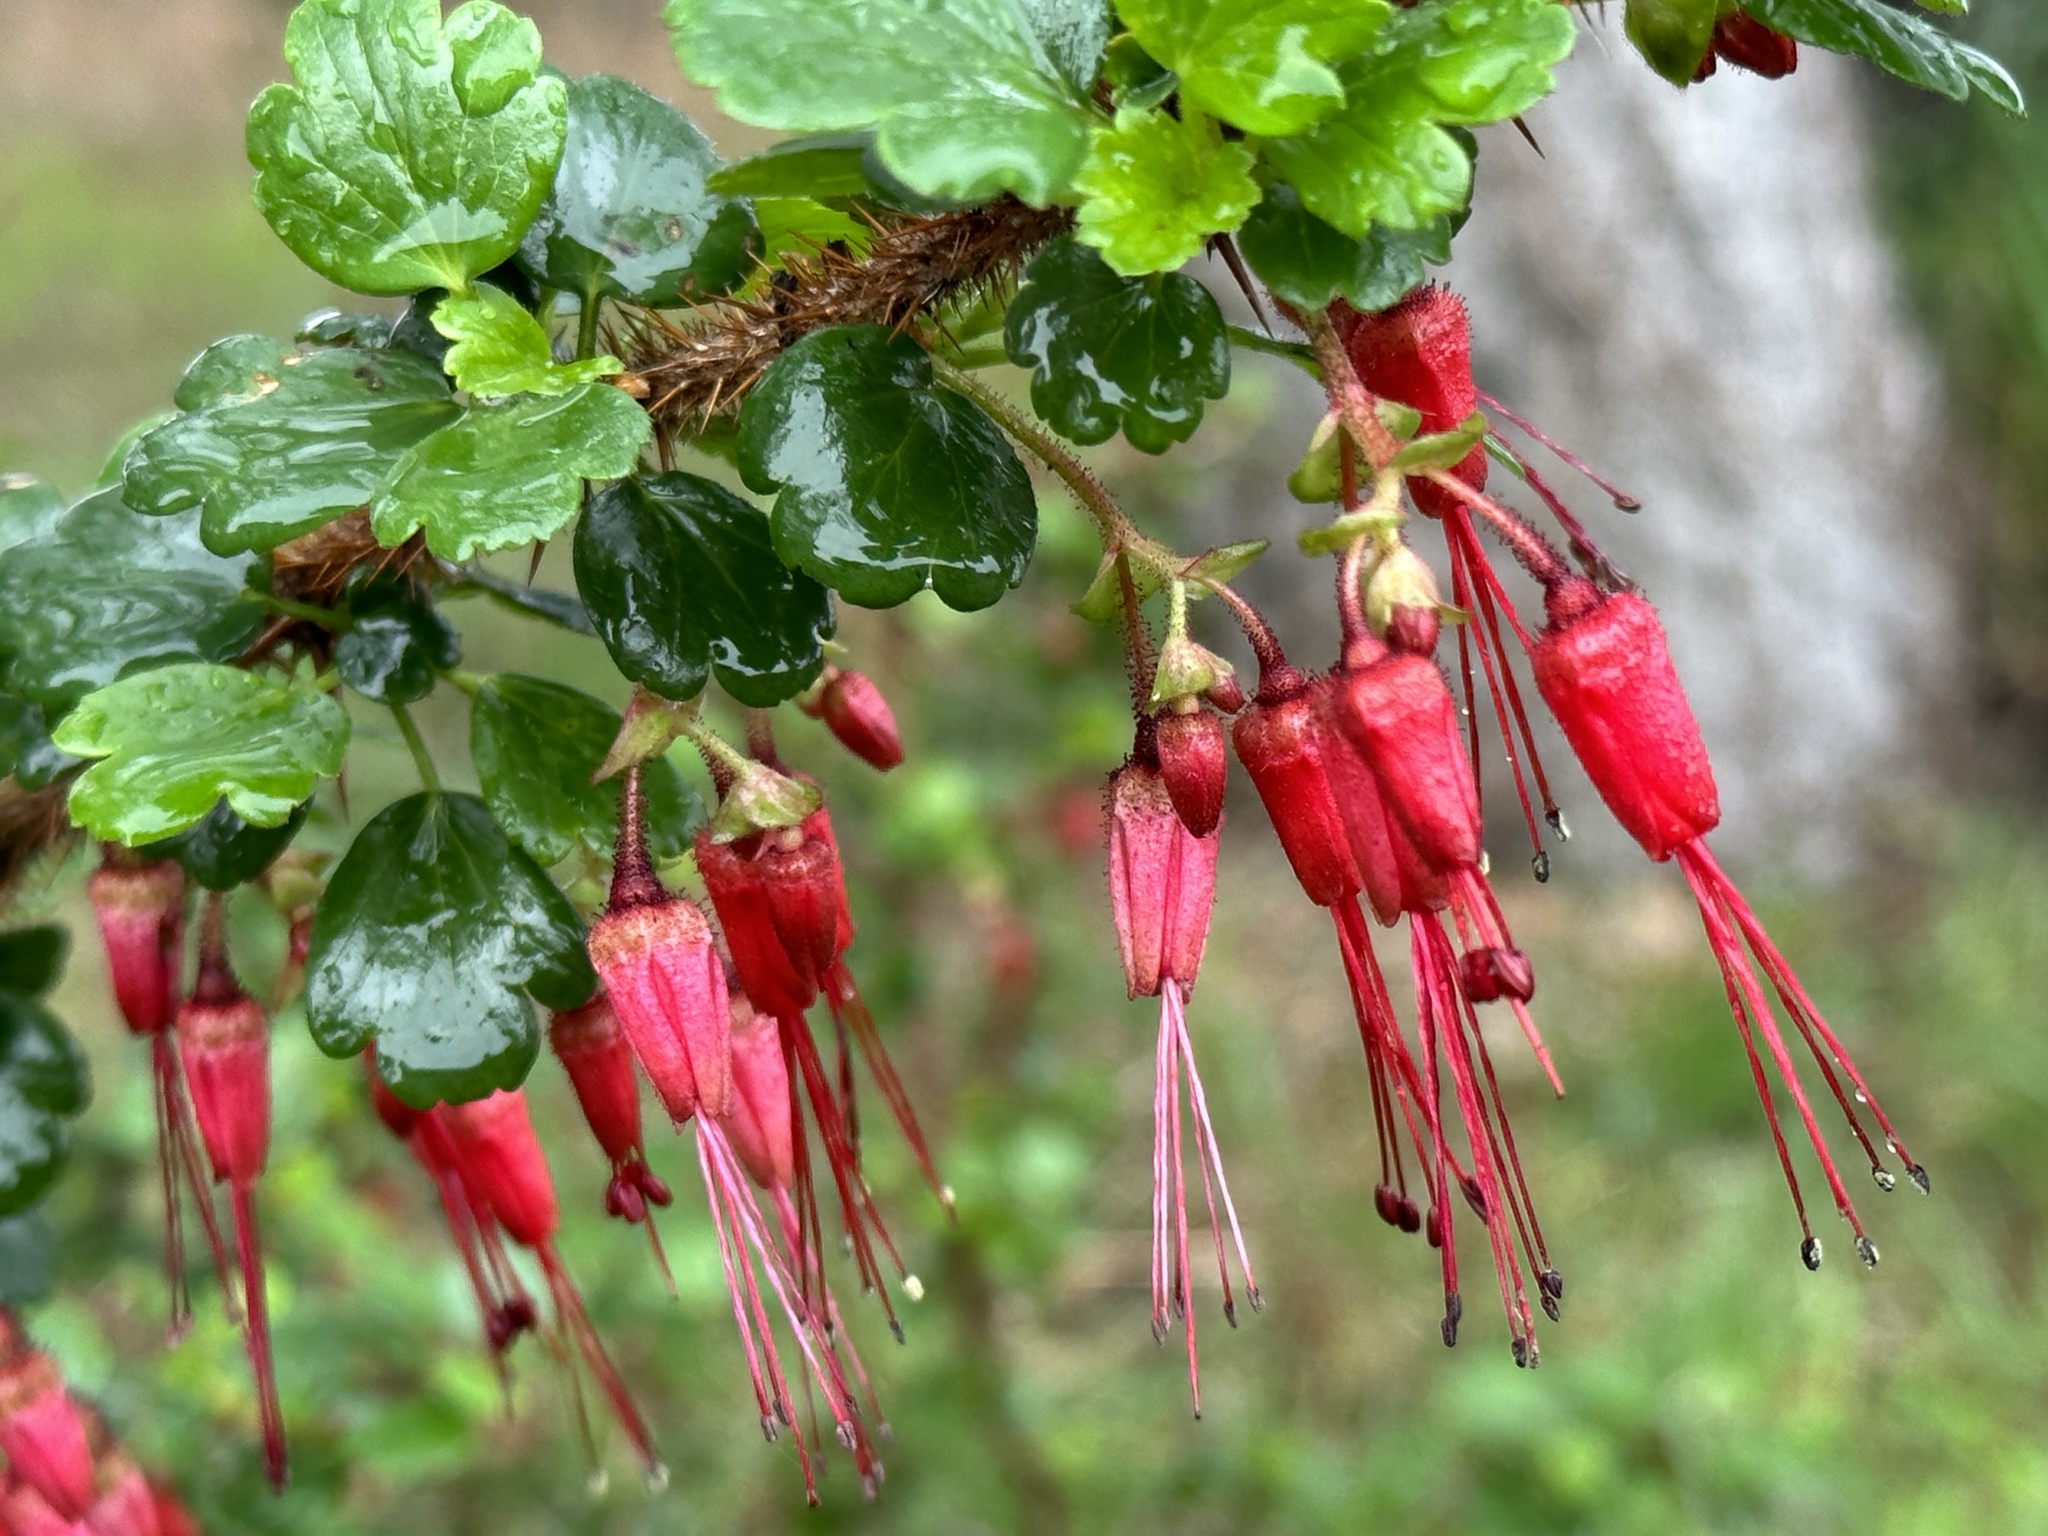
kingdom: Plantae
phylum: Tracheophyta
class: Magnoliopsida
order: Saxifragales
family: Grossulariaceae
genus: Ribes
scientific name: Ribes speciosum
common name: Fuchsia-flower gooseberry
